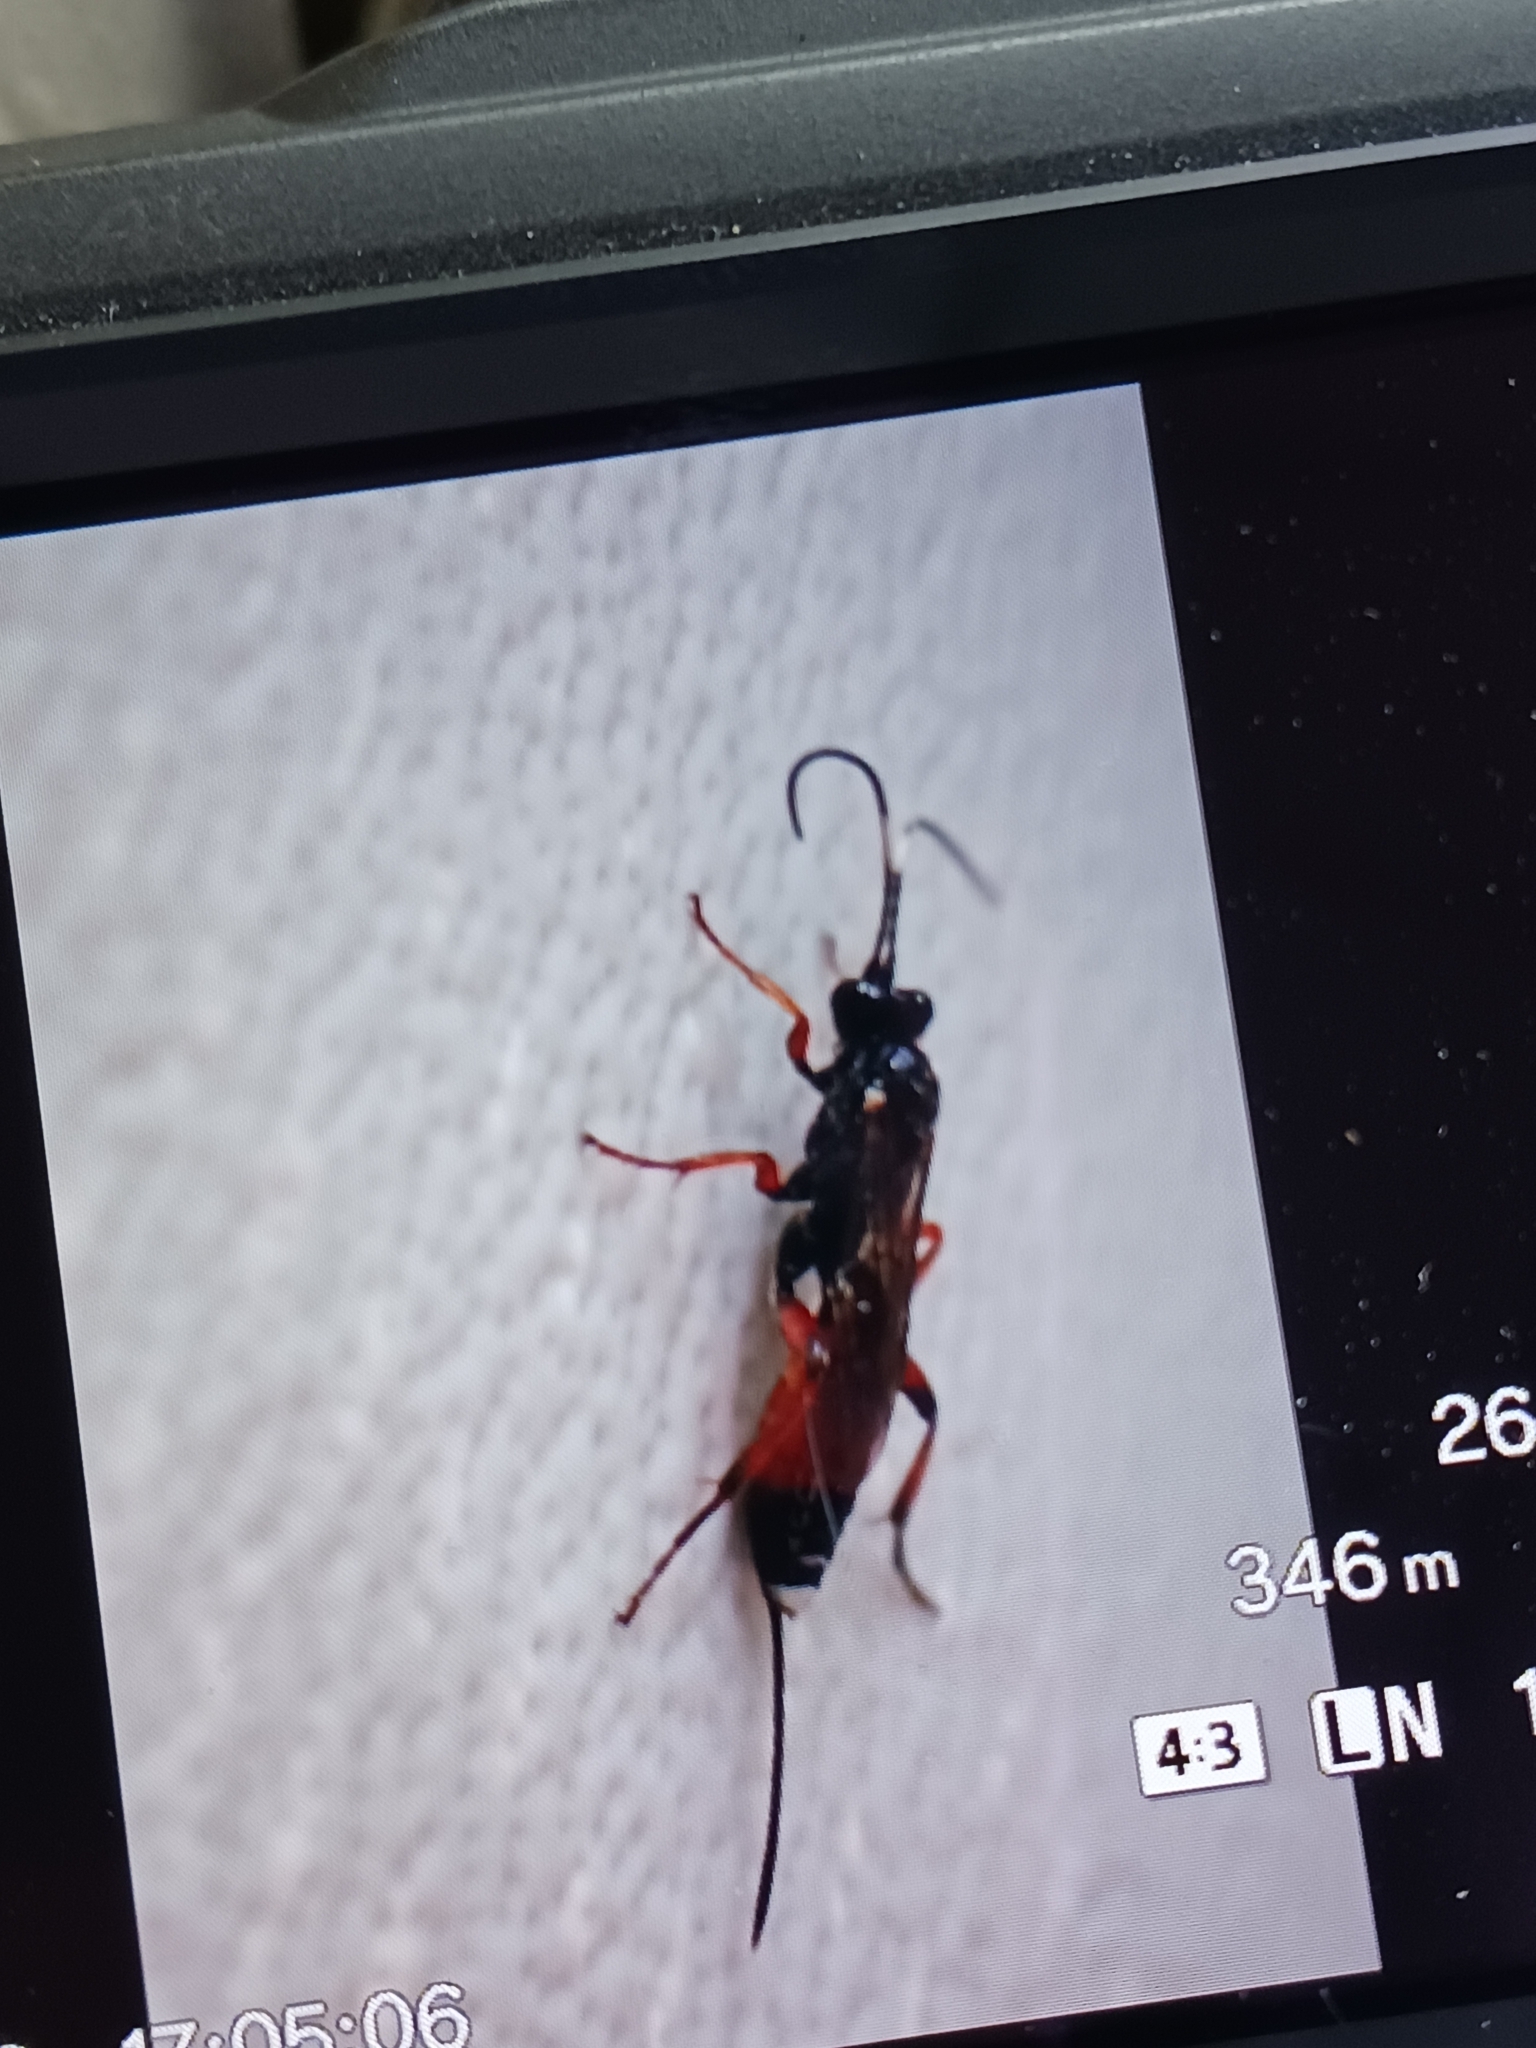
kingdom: Animalia
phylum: Arthropoda
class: Insecta
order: Hymenoptera
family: Ichneumonidae
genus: Aritranis
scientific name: Aritranis director
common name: Ichneumonid wasp
